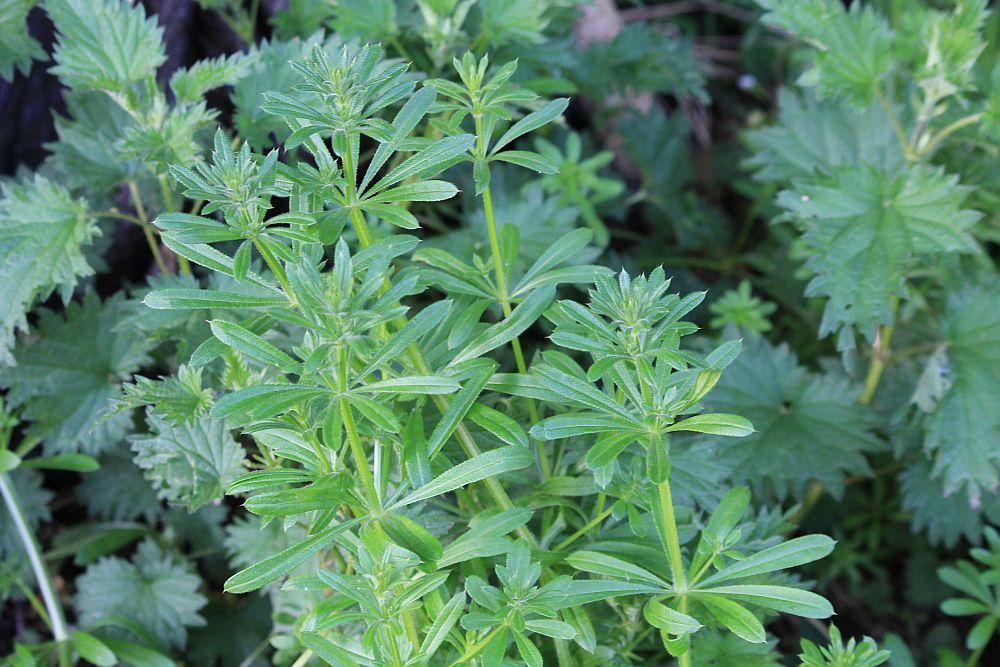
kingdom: Plantae
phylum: Tracheophyta
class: Magnoliopsida
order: Gentianales
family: Rubiaceae
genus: Galium
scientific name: Galium aparine
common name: Cleavers
